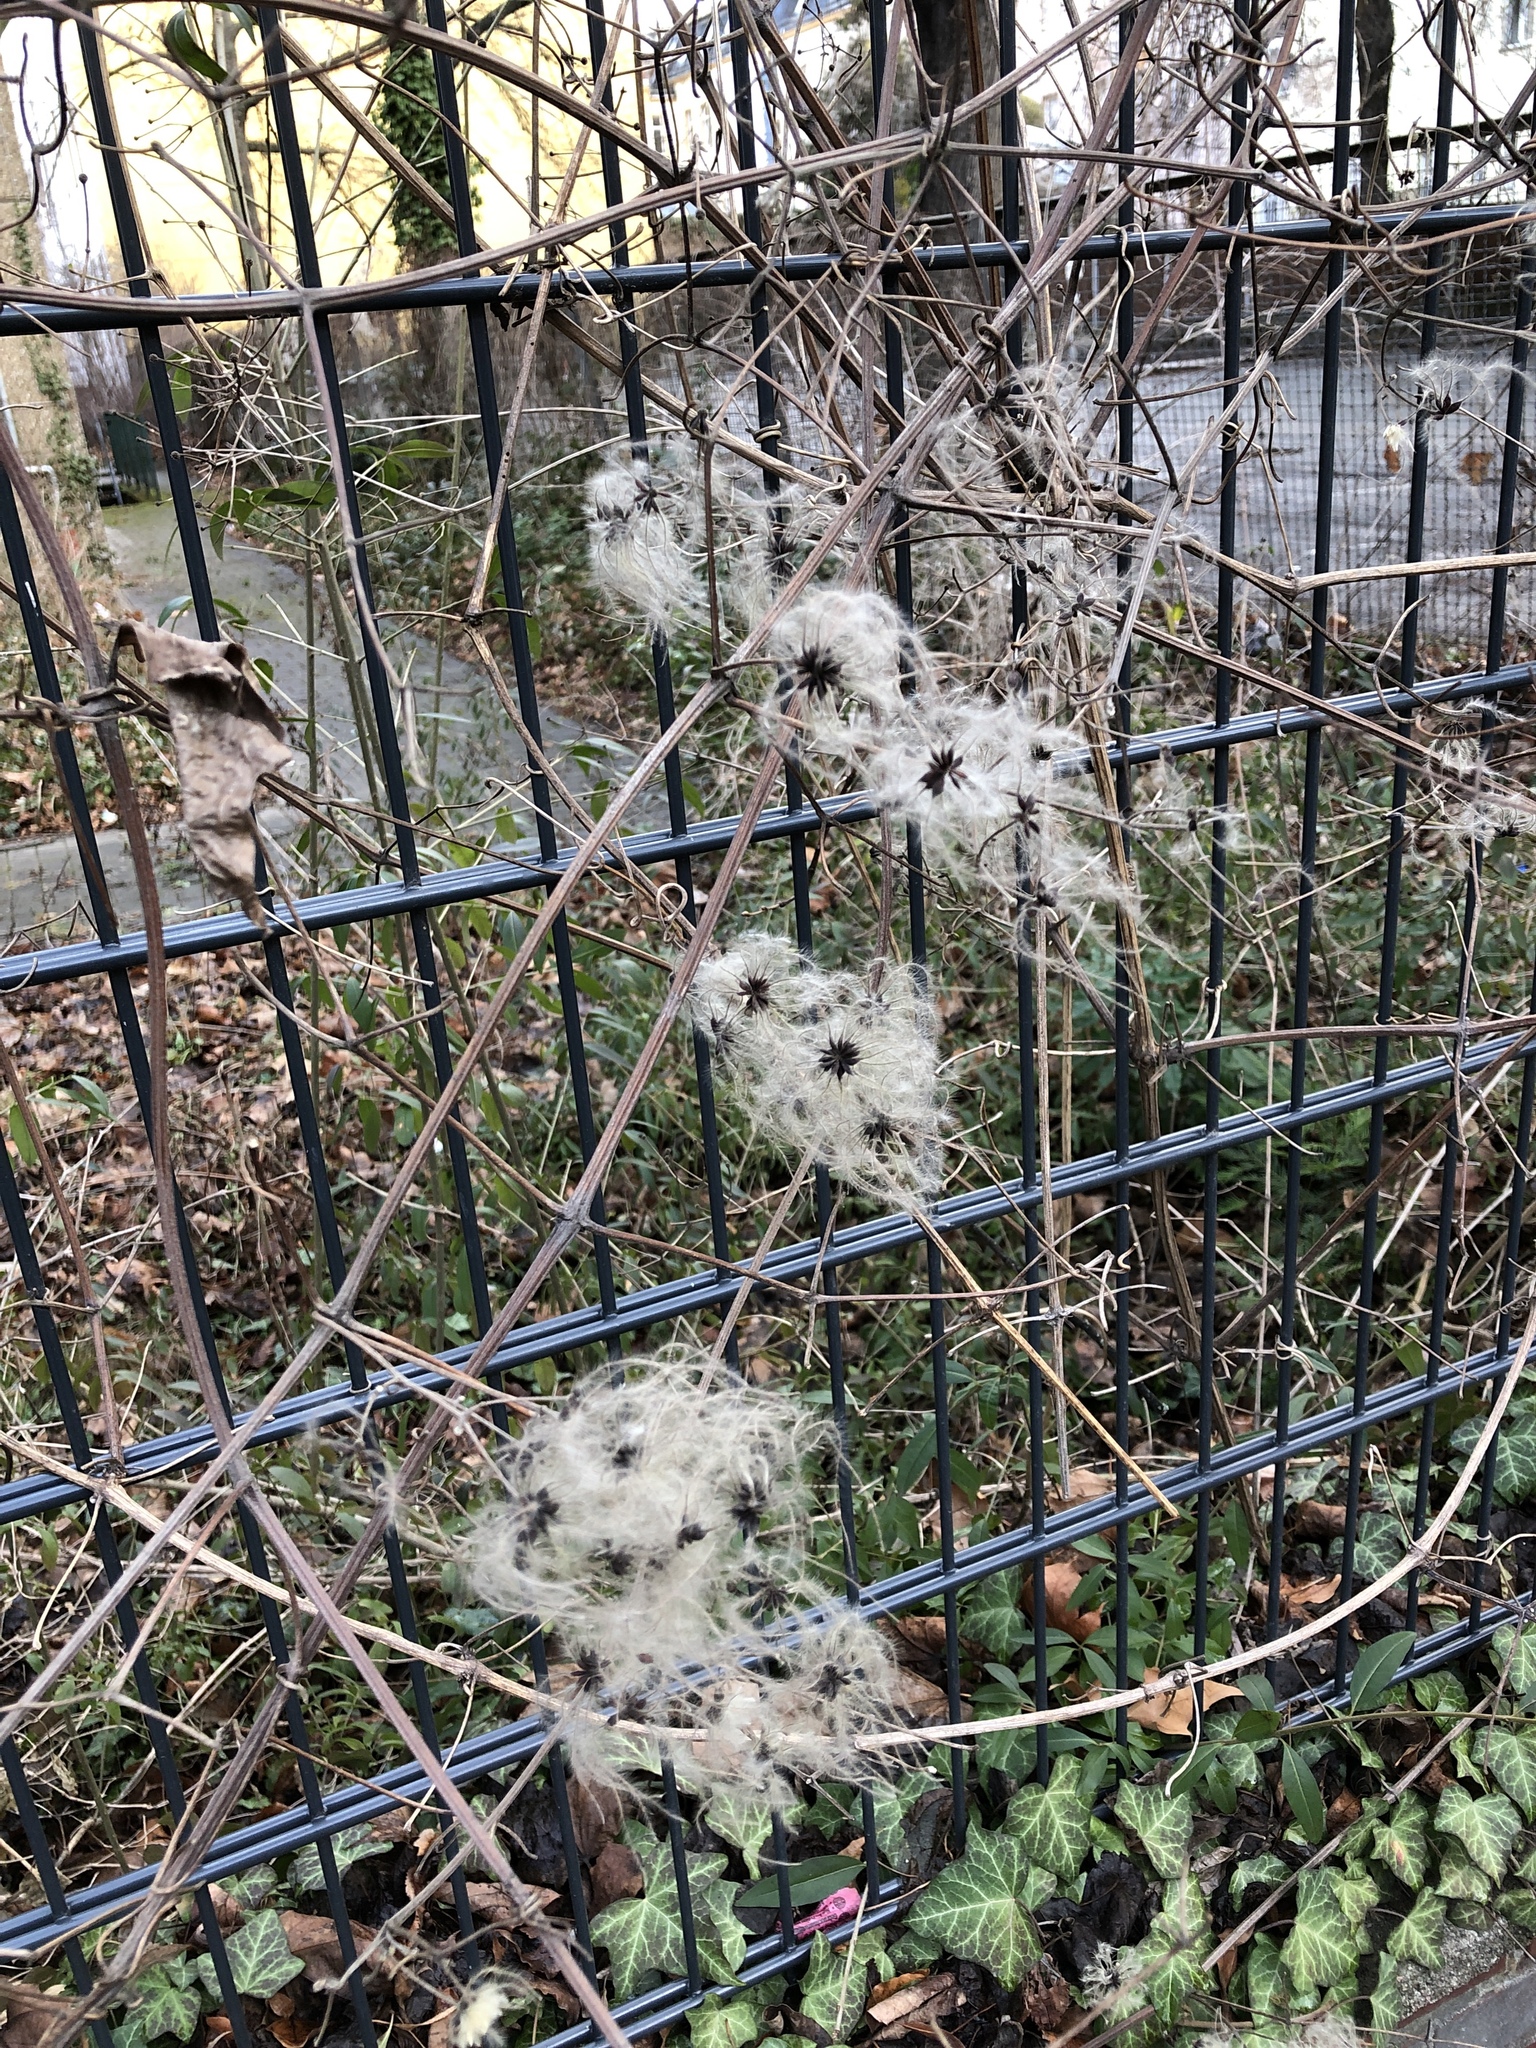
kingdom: Plantae
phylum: Tracheophyta
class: Magnoliopsida
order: Ranunculales
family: Ranunculaceae
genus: Clematis
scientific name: Clematis vitalba
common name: Evergreen clematis
